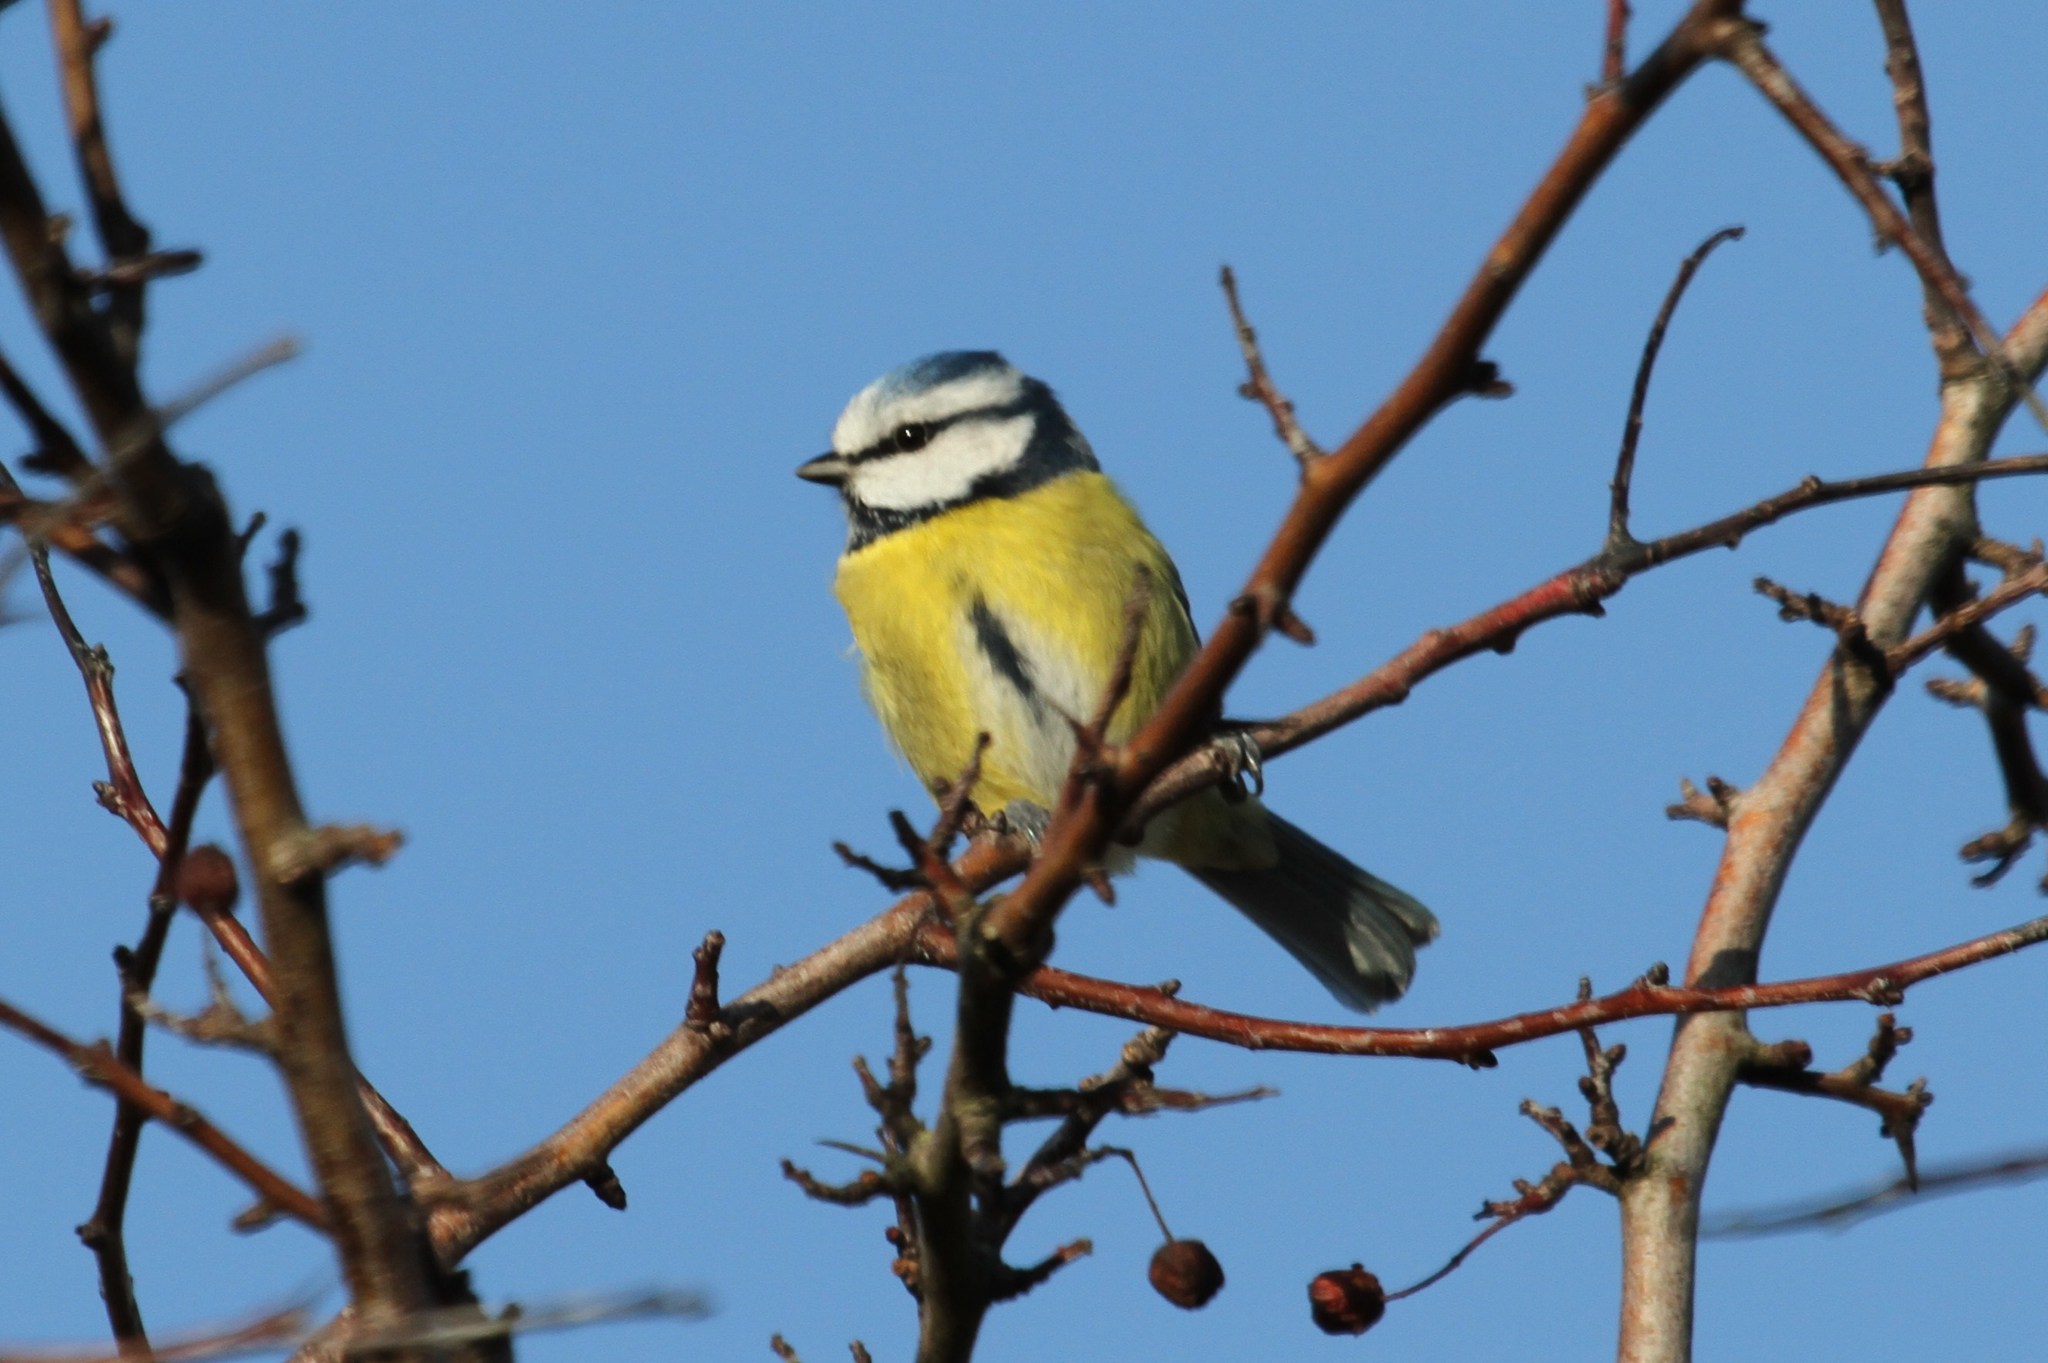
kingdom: Animalia
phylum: Chordata
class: Aves
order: Passeriformes
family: Paridae
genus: Cyanistes
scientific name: Cyanistes caeruleus
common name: Eurasian blue tit
